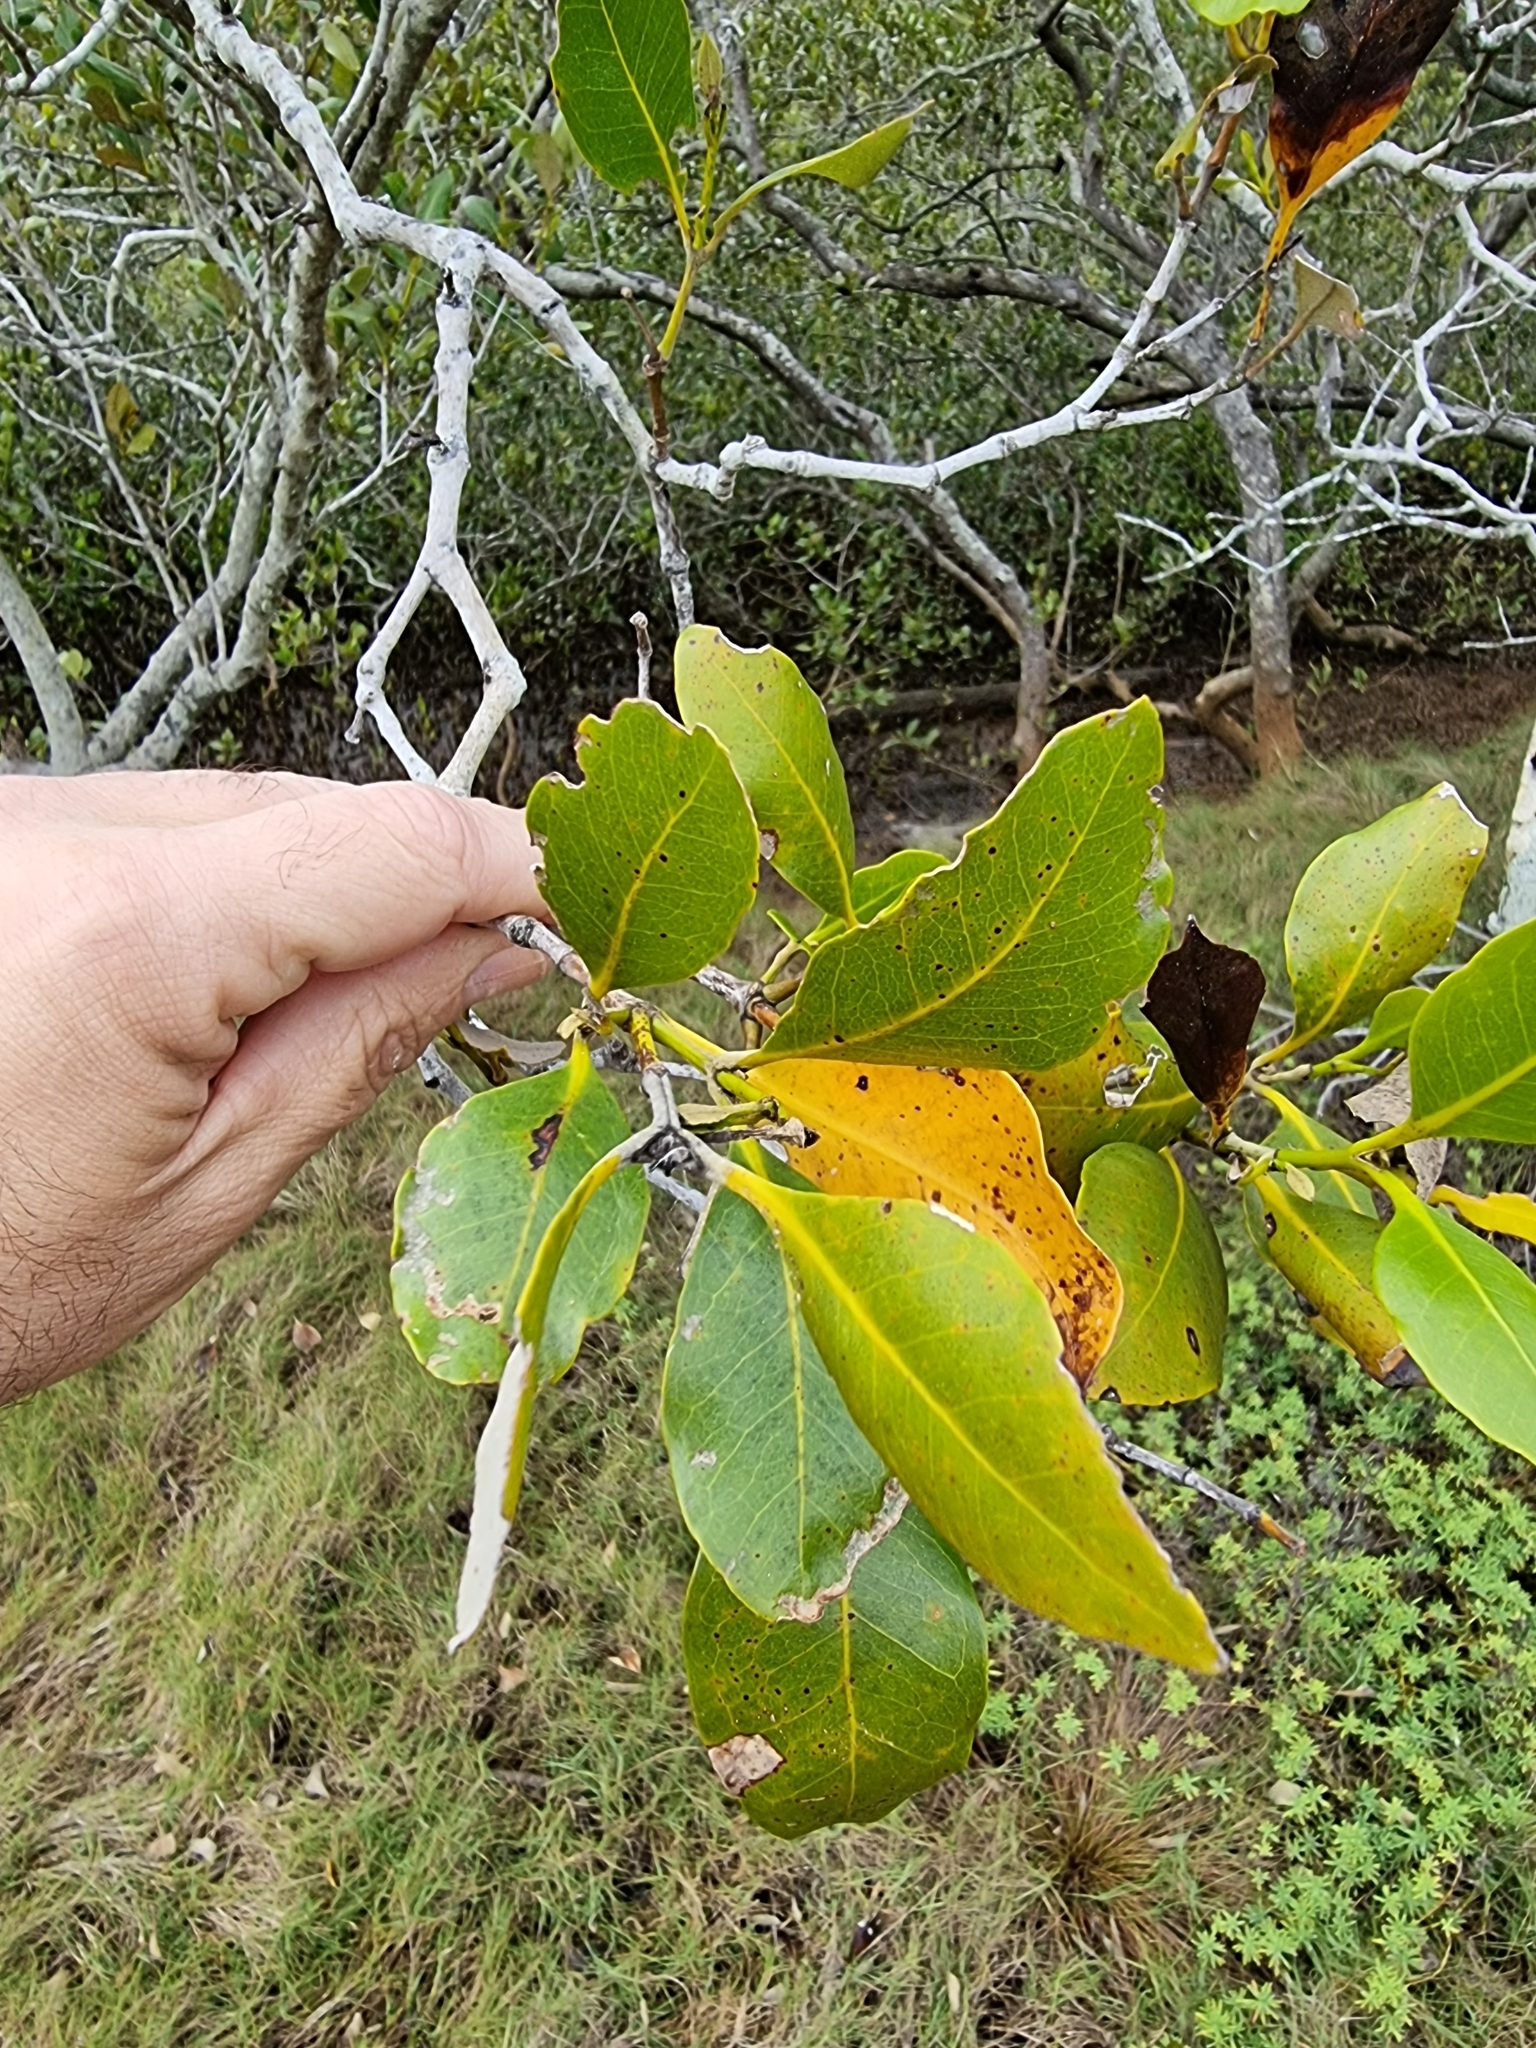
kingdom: Plantae
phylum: Tracheophyta
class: Magnoliopsida
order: Lamiales
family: Acanthaceae
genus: Avicennia
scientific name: Avicennia marina
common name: Gray mangrove
